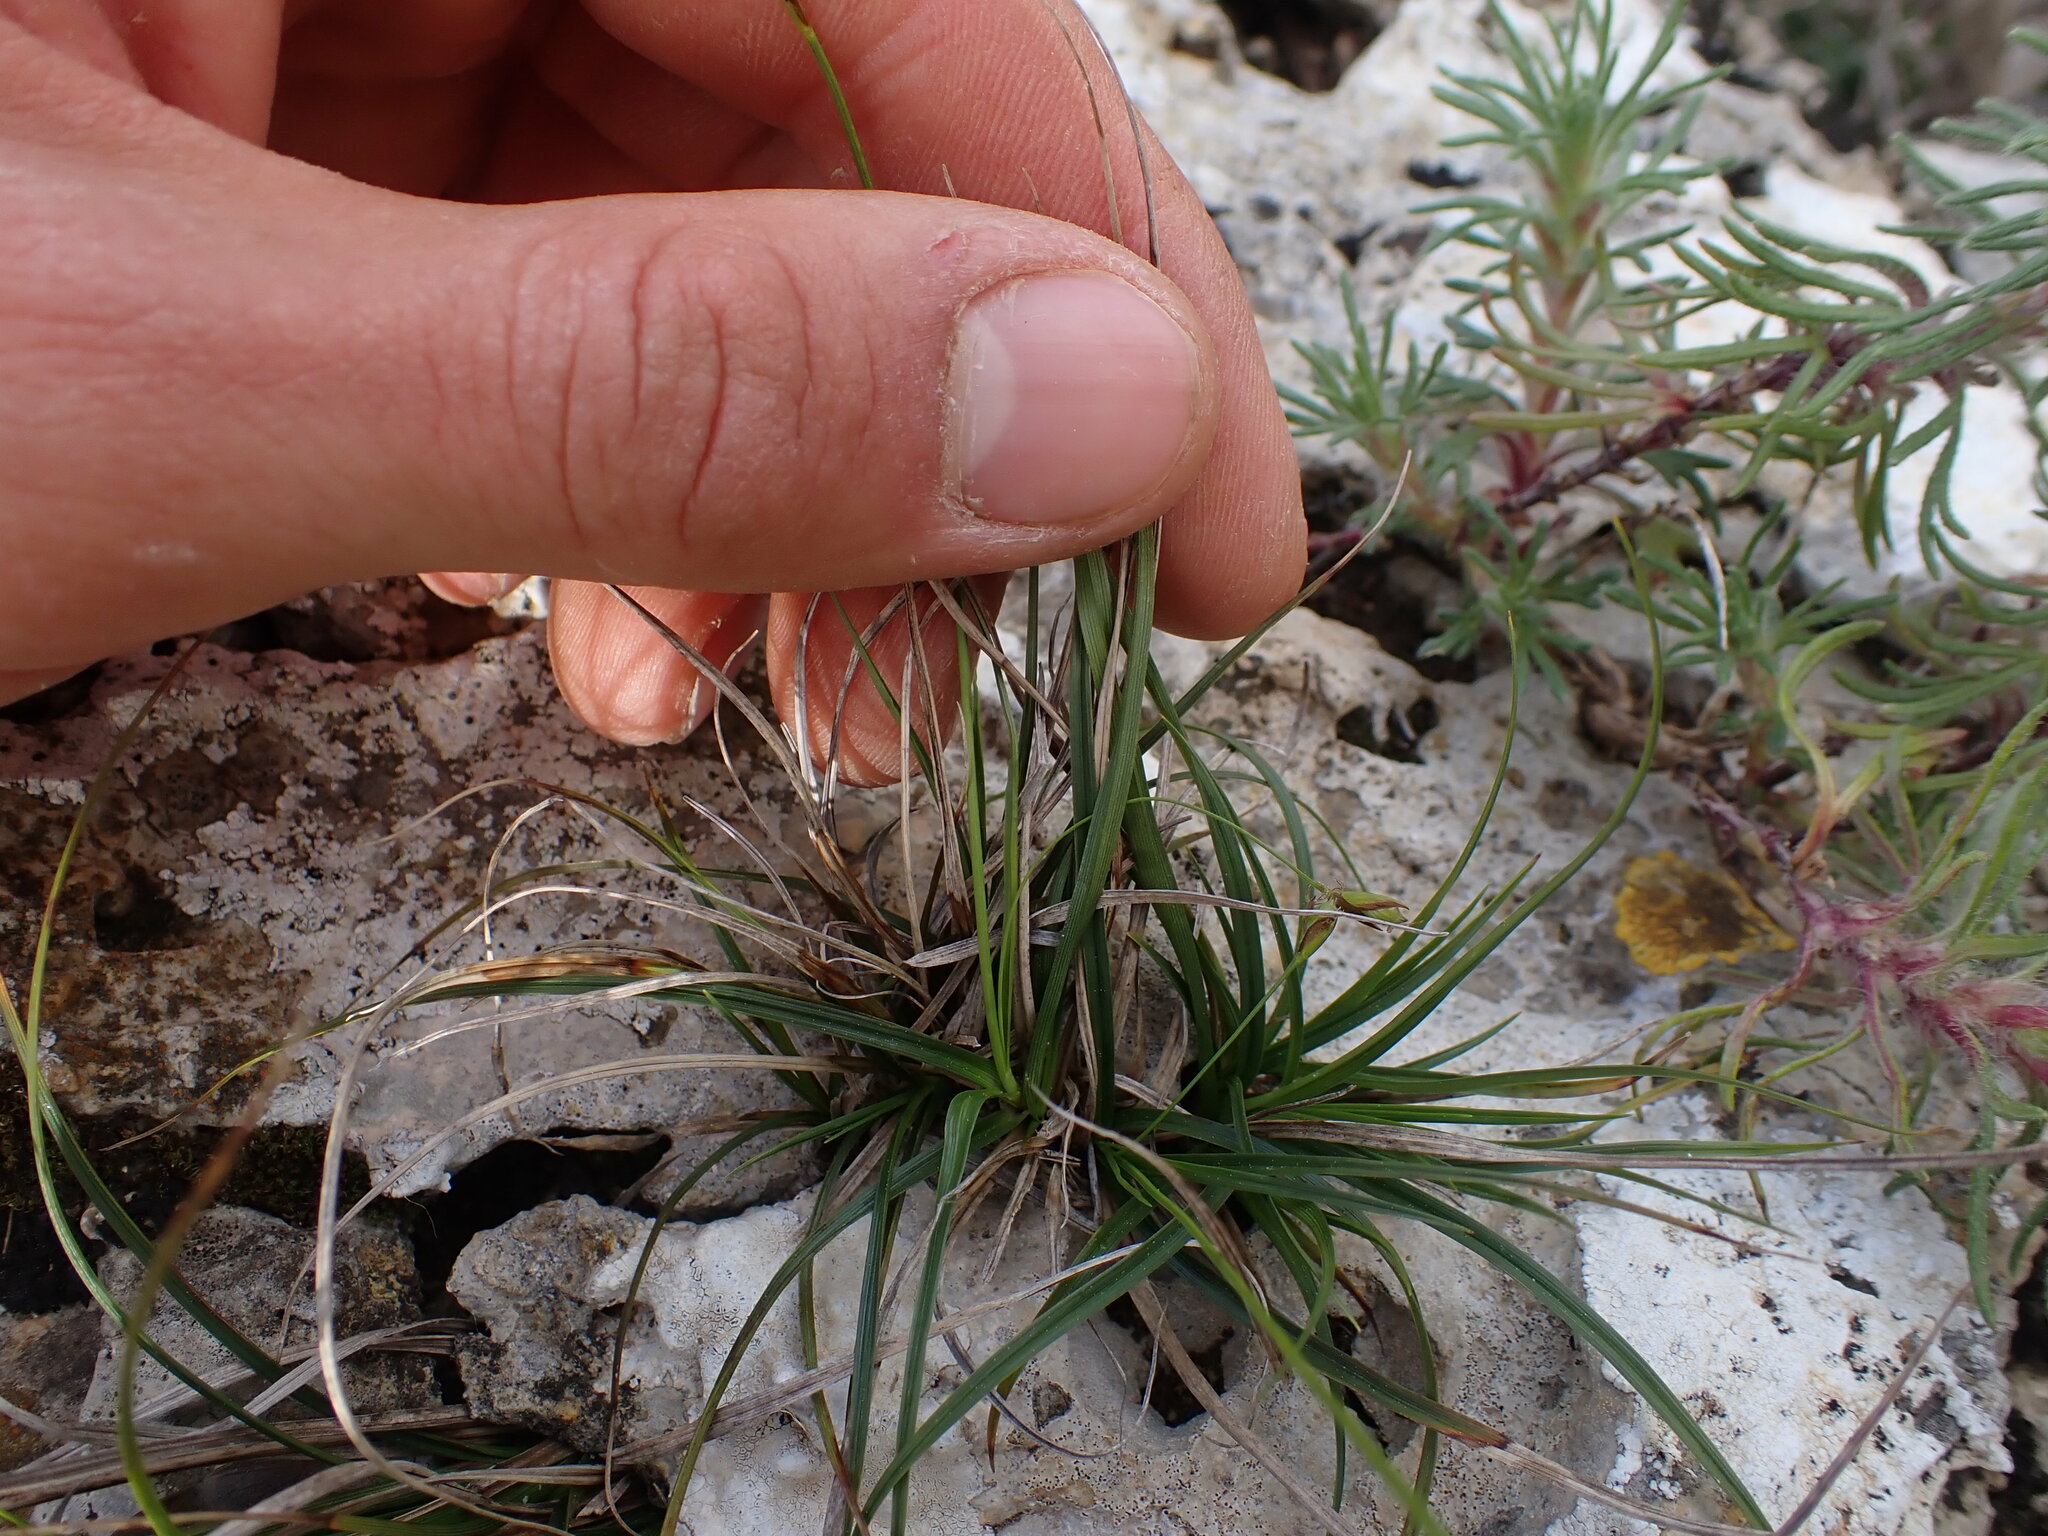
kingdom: Plantae
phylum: Tracheophyta
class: Liliopsida
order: Poales
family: Cyperaceae
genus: Carex
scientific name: Carex halleriana
